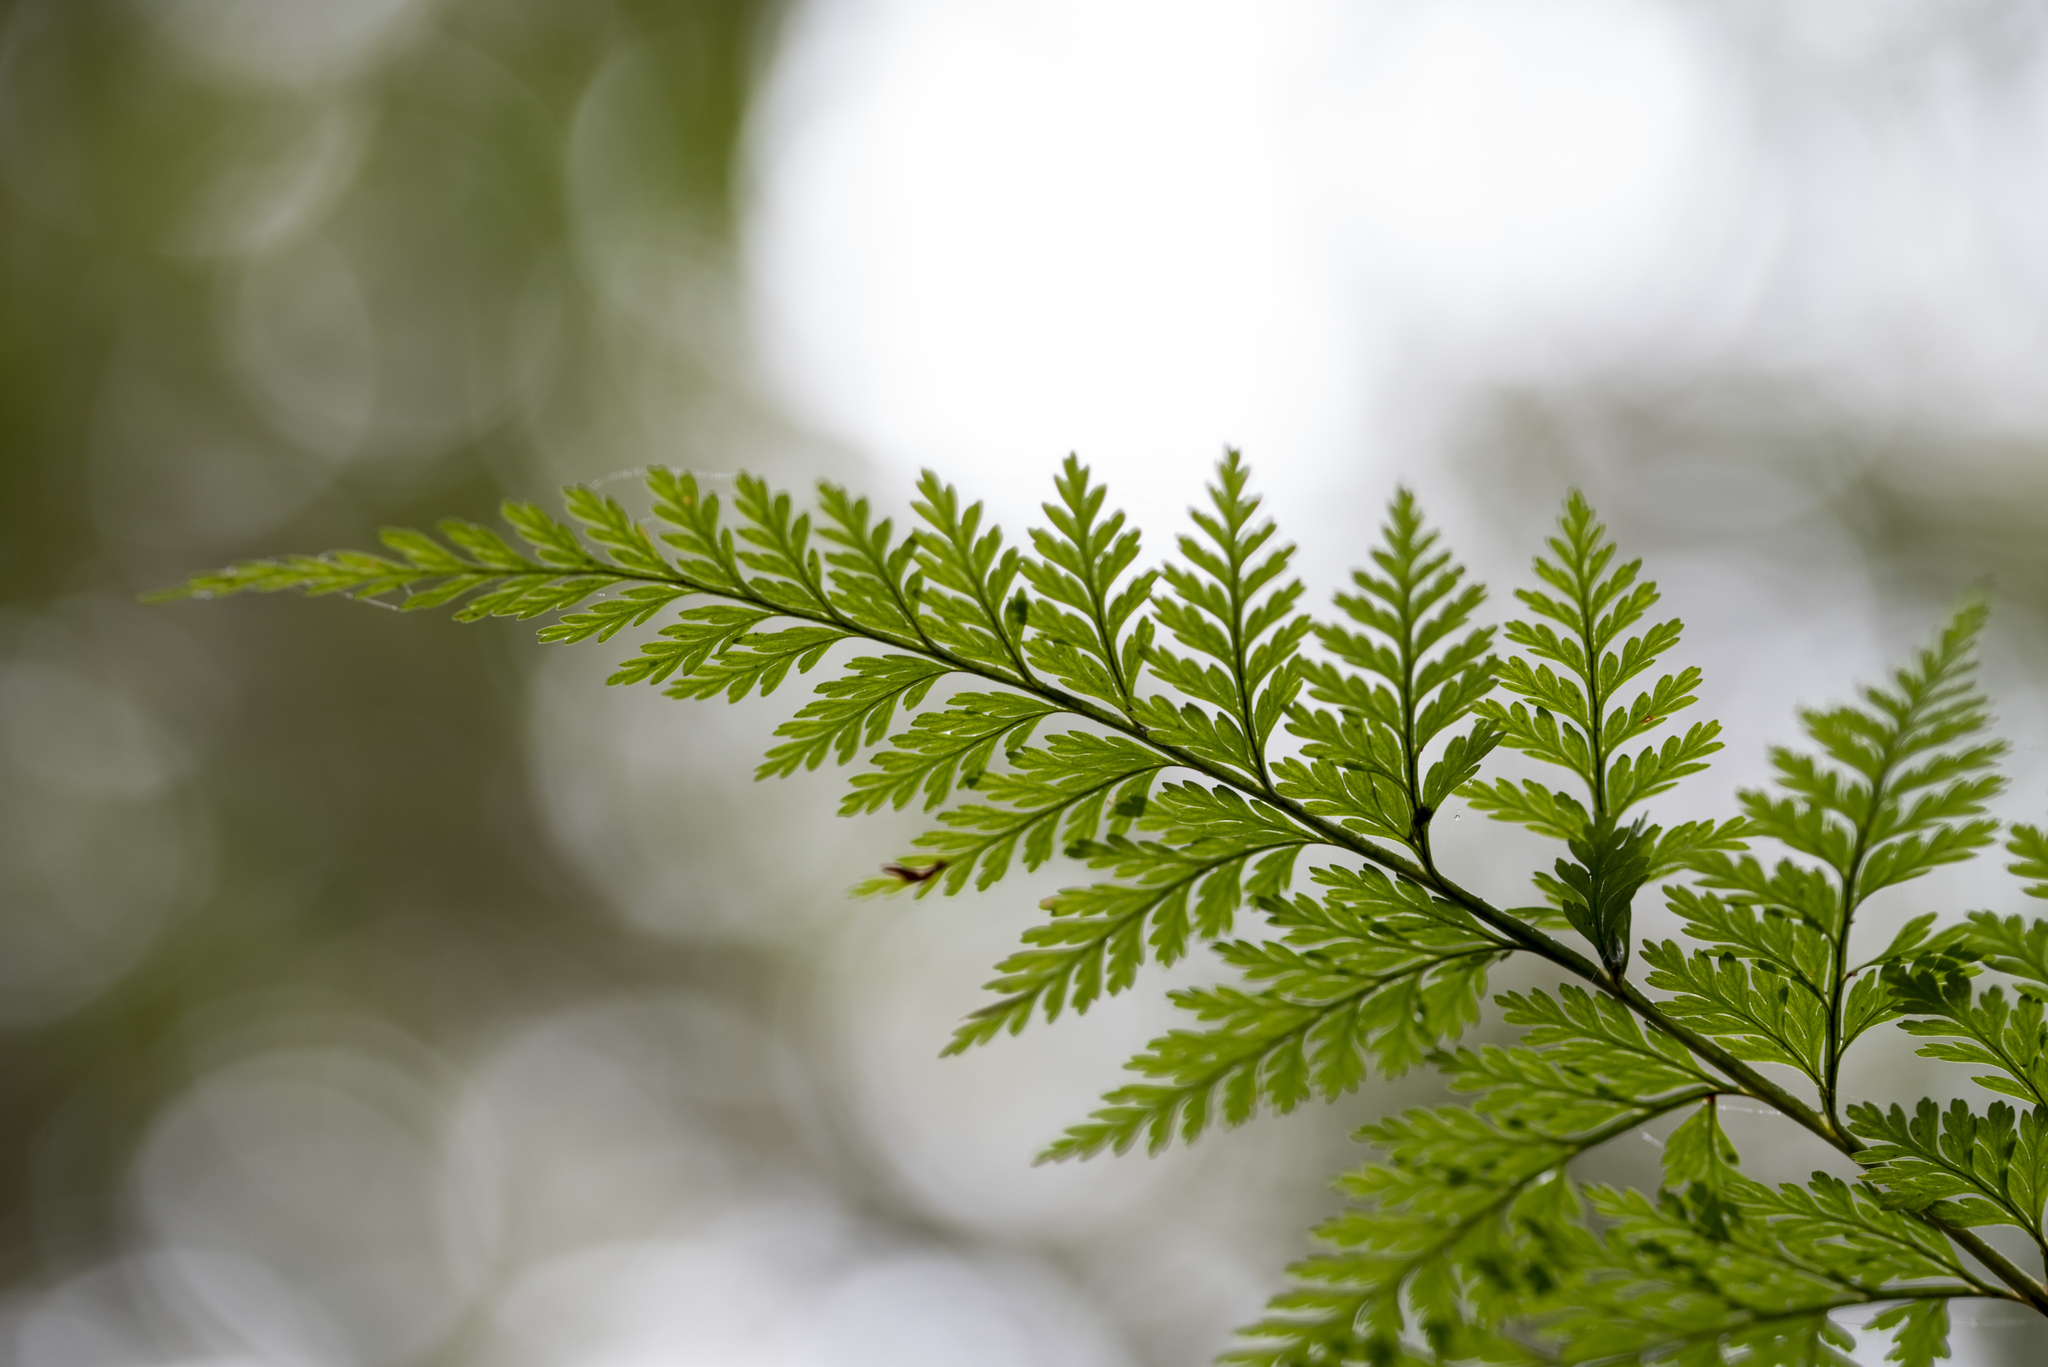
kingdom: Plantae
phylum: Tracheophyta
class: Polypodiopsida
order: Polypodiales
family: Davalliaceae
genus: Davallia
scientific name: Davallia trichomanoides
